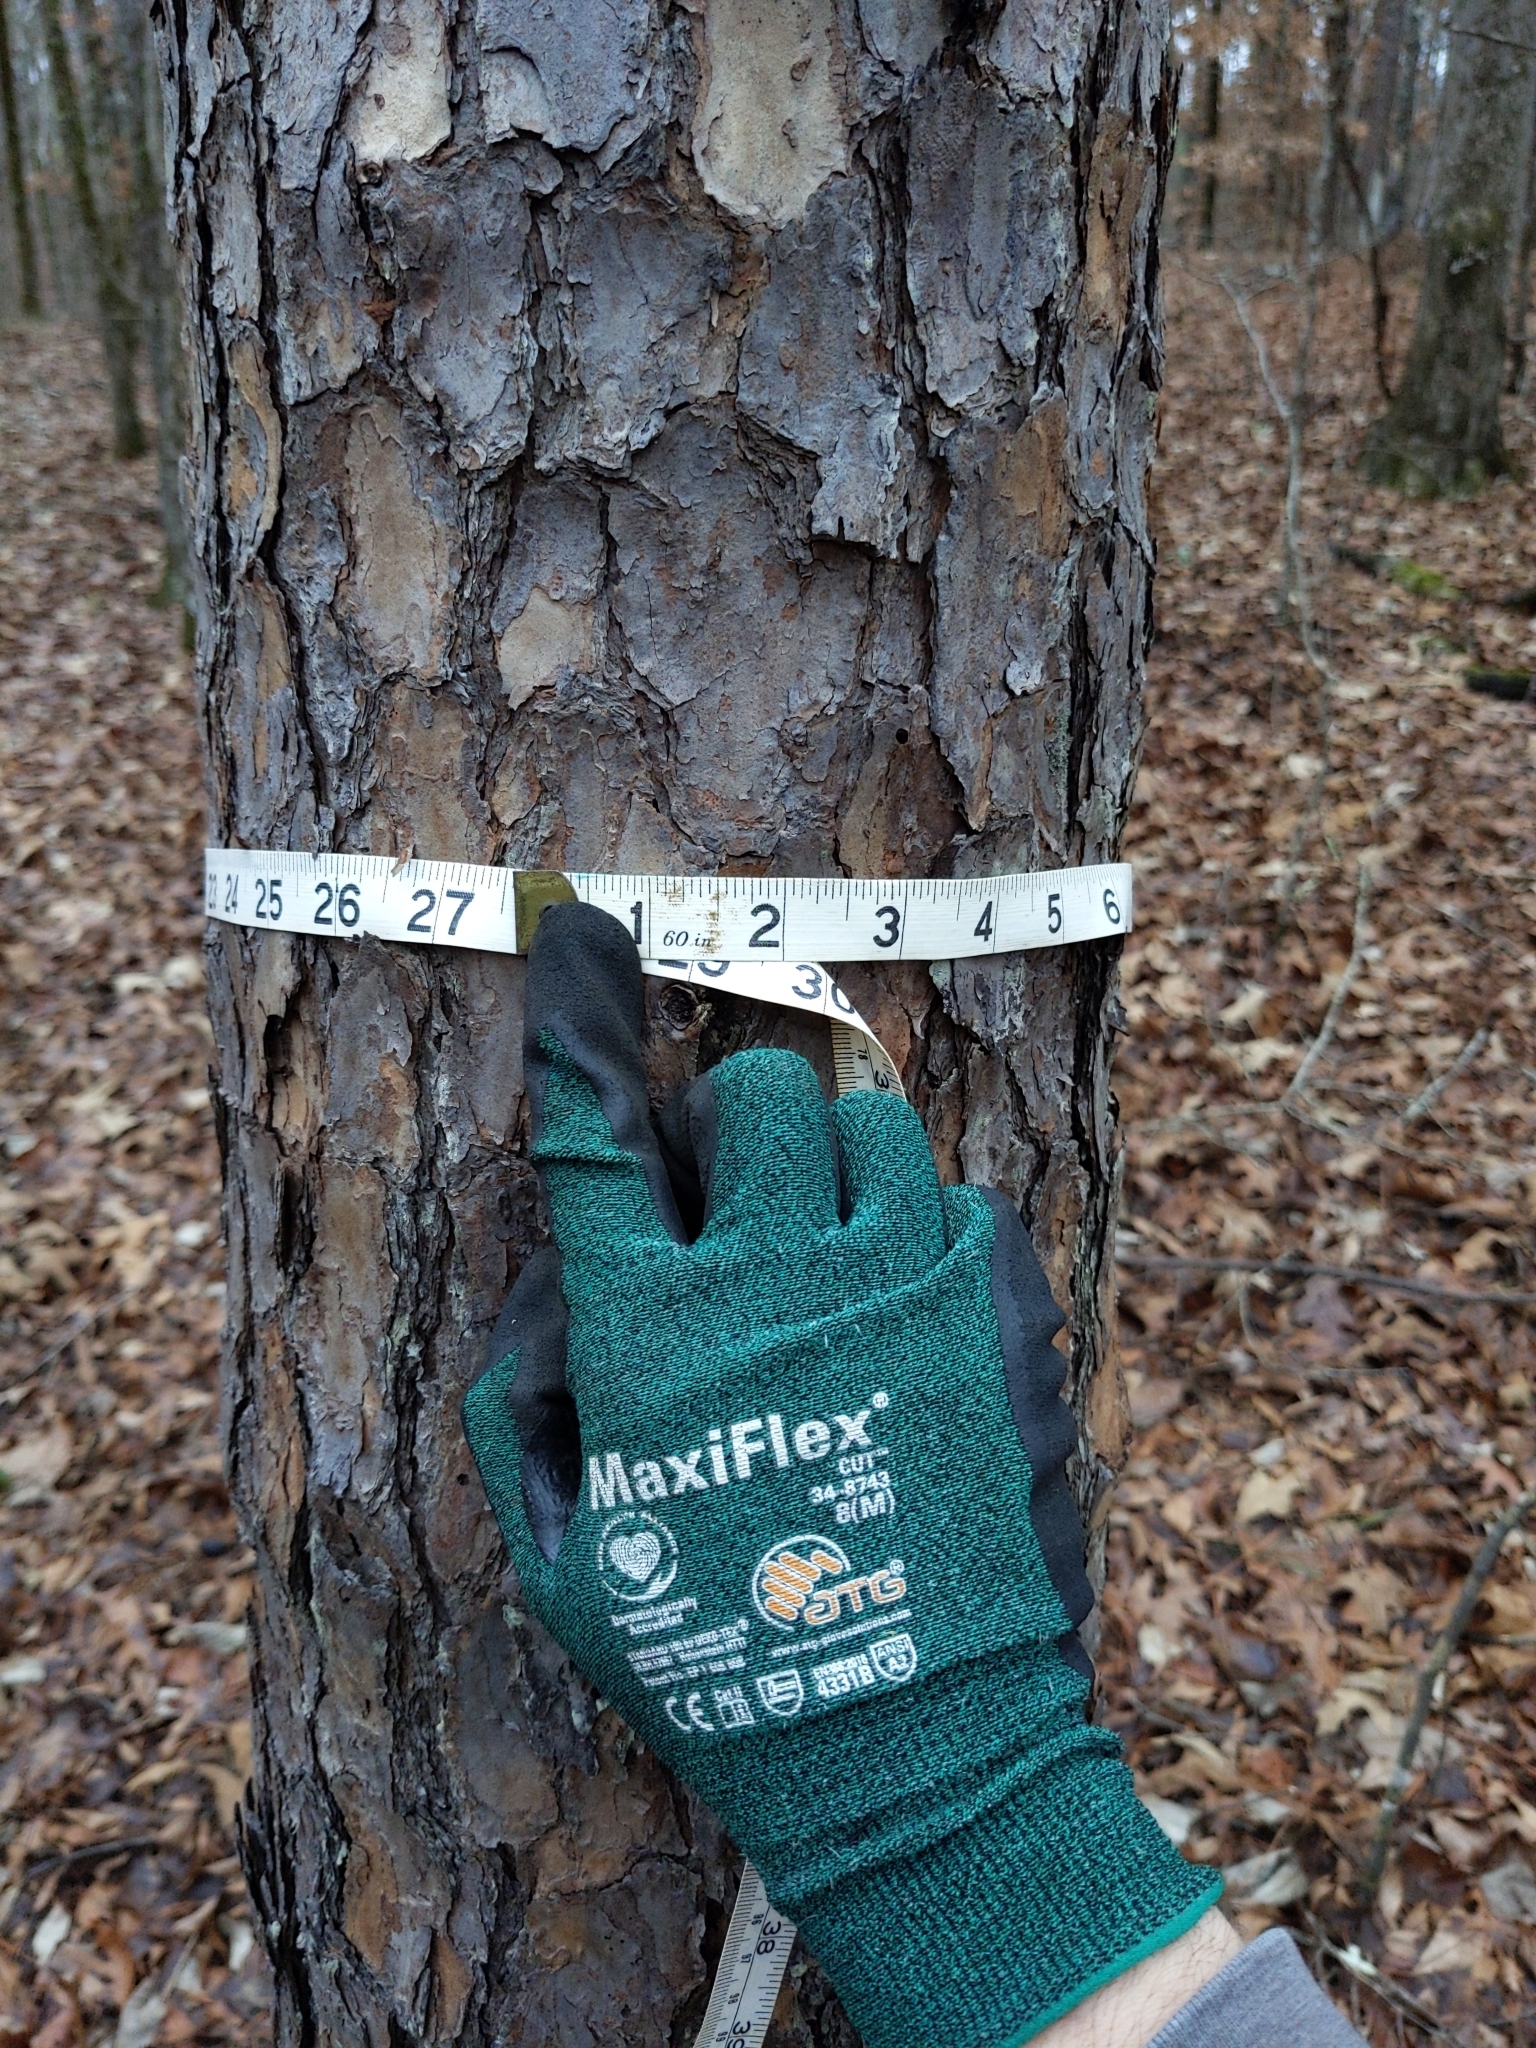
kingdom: Plantae
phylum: Tracheophyta
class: Pinopsida
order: Pinales
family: Pinaceae
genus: Pinus
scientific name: Pinus echinata
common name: Shortleaf pine
